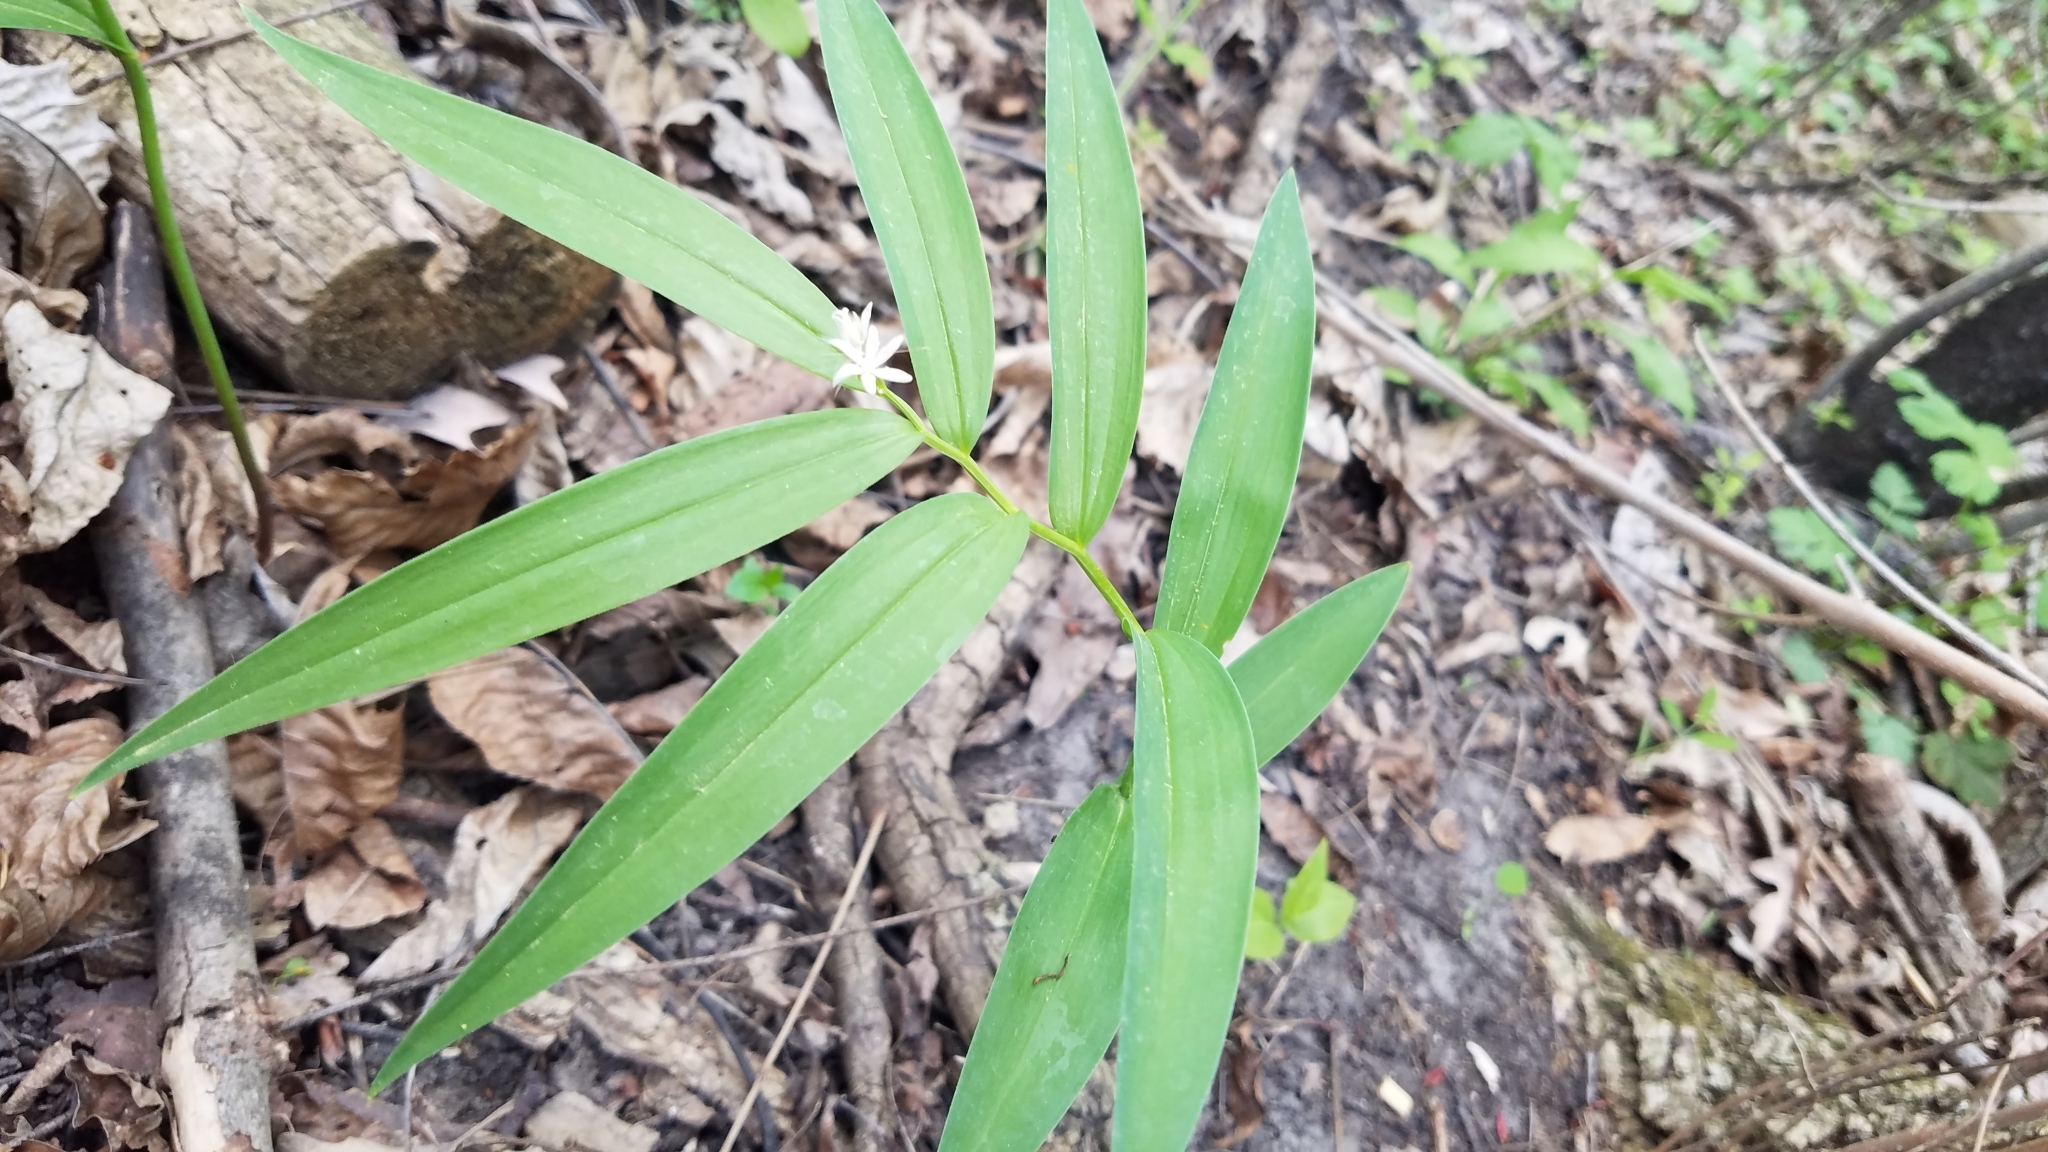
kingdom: Plantae
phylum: Tracheophyta
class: Liliopsida
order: Asparagales
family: Asparagaceae
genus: Maianthemum
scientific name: Maianthemum stellatum
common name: Little false solomon's seal
